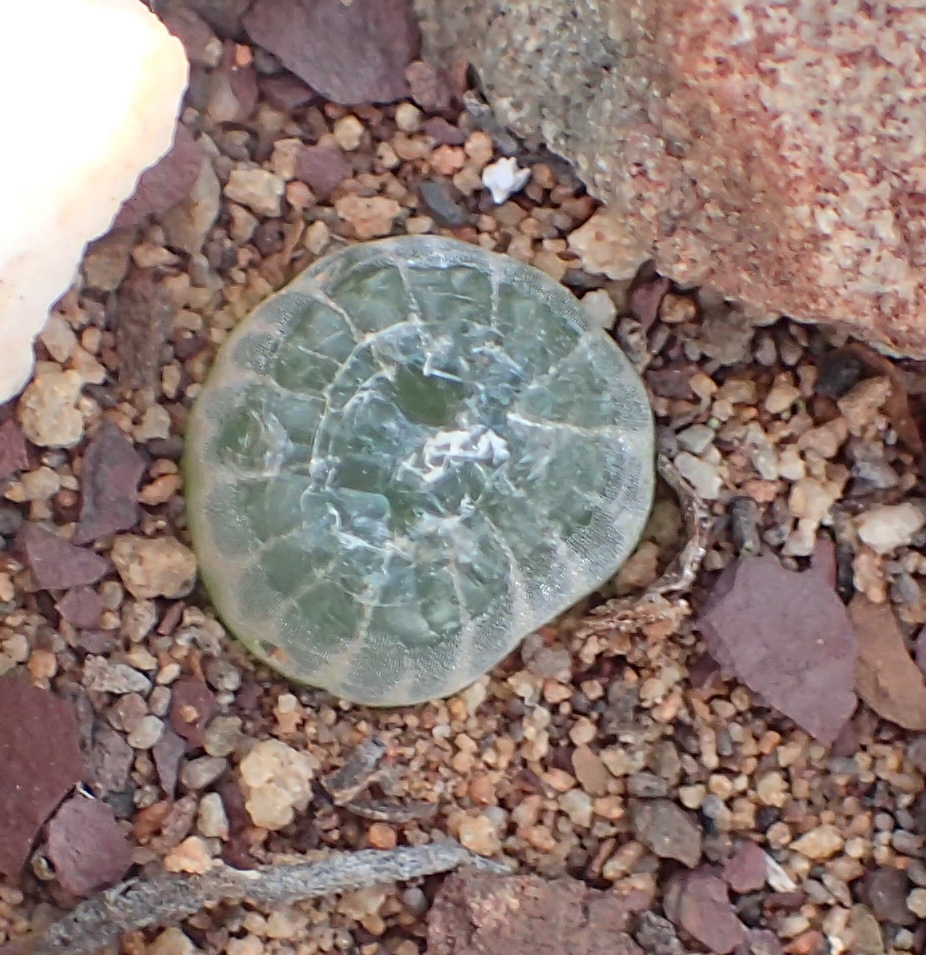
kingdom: Plantae
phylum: Tracheophyta
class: Liliopsida
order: Asparagales
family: Asphodelaceae
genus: Bulbine
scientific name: Bulbine mesembryanthoides
